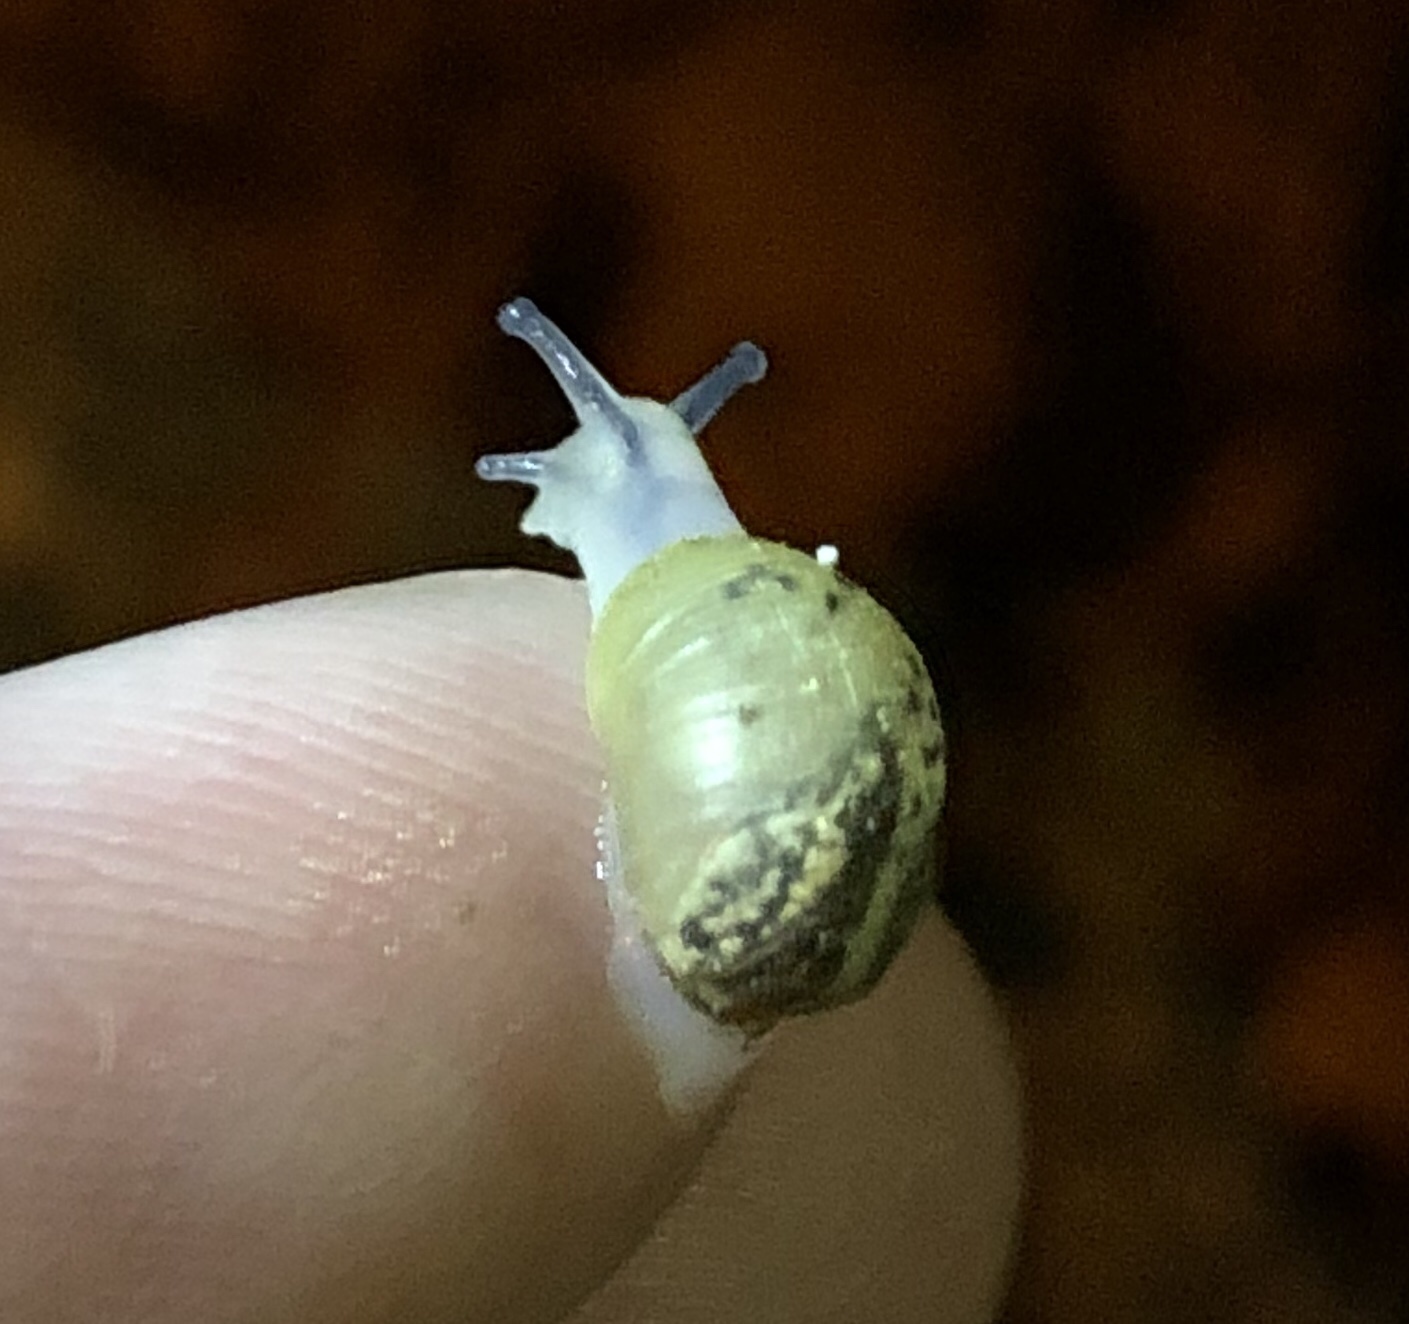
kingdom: Animalia
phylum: Mollusca
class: Gastropoda
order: Stylommatophora
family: Helicidae
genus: Cantareus
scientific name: Cantareus apertus
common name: Green gardensnail
